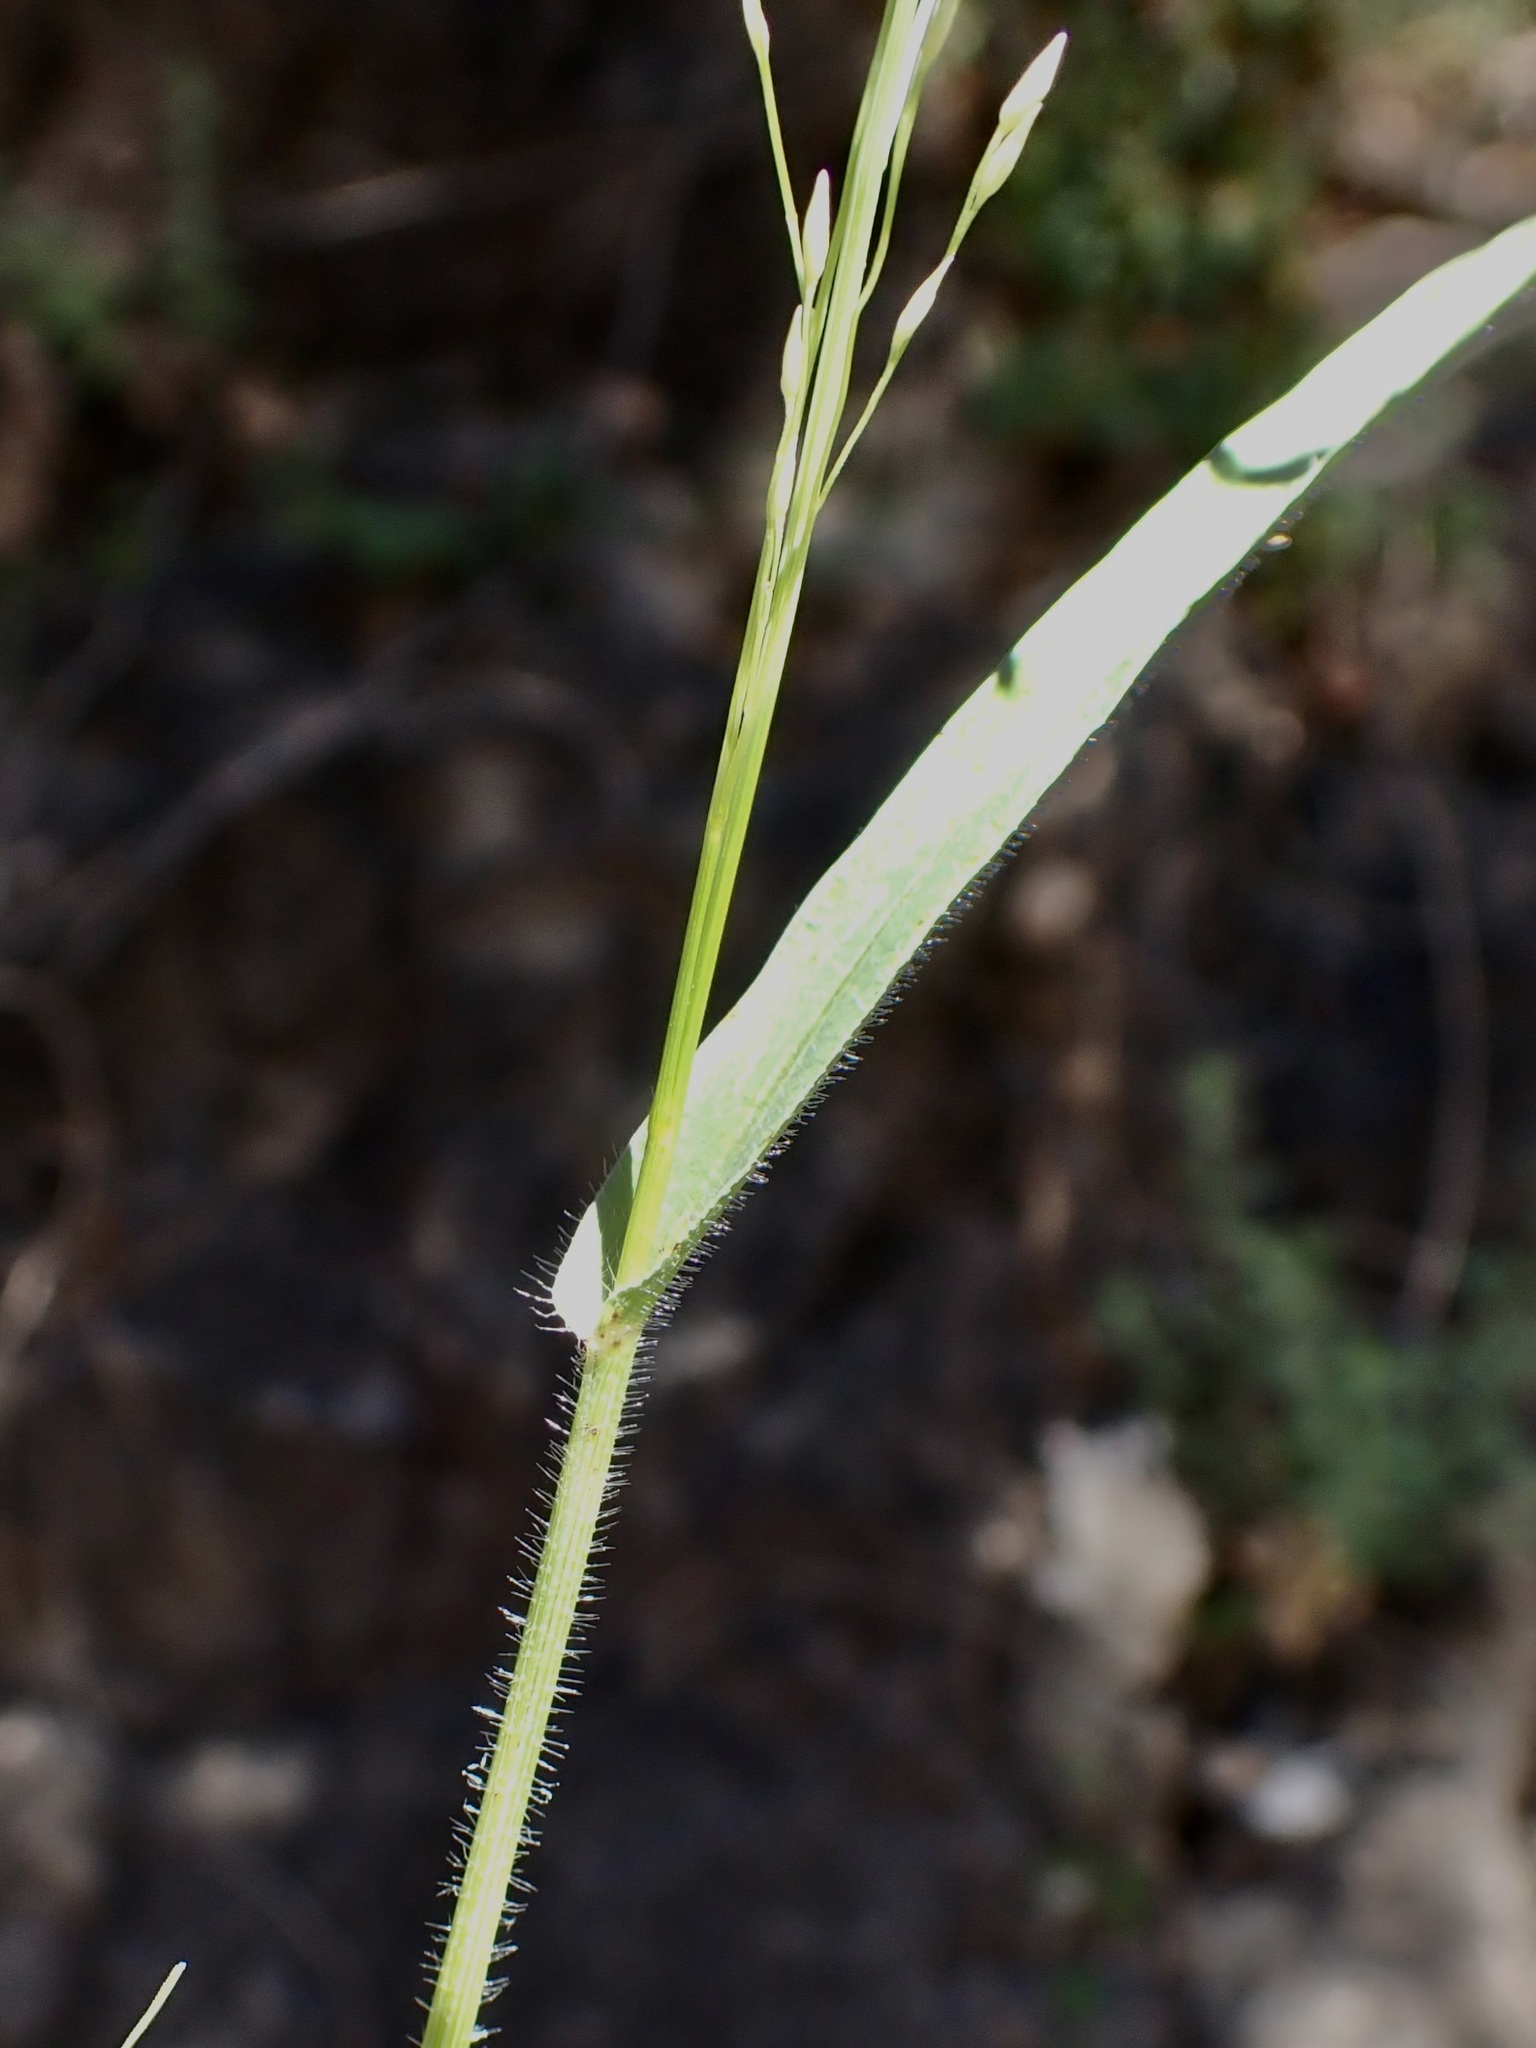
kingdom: Plantae
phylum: Tracheophyta
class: Liliopsida
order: Poales
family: Poaceae
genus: Panicum
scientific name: Panicum hirticaule
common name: Rough-stalk witchgrass
